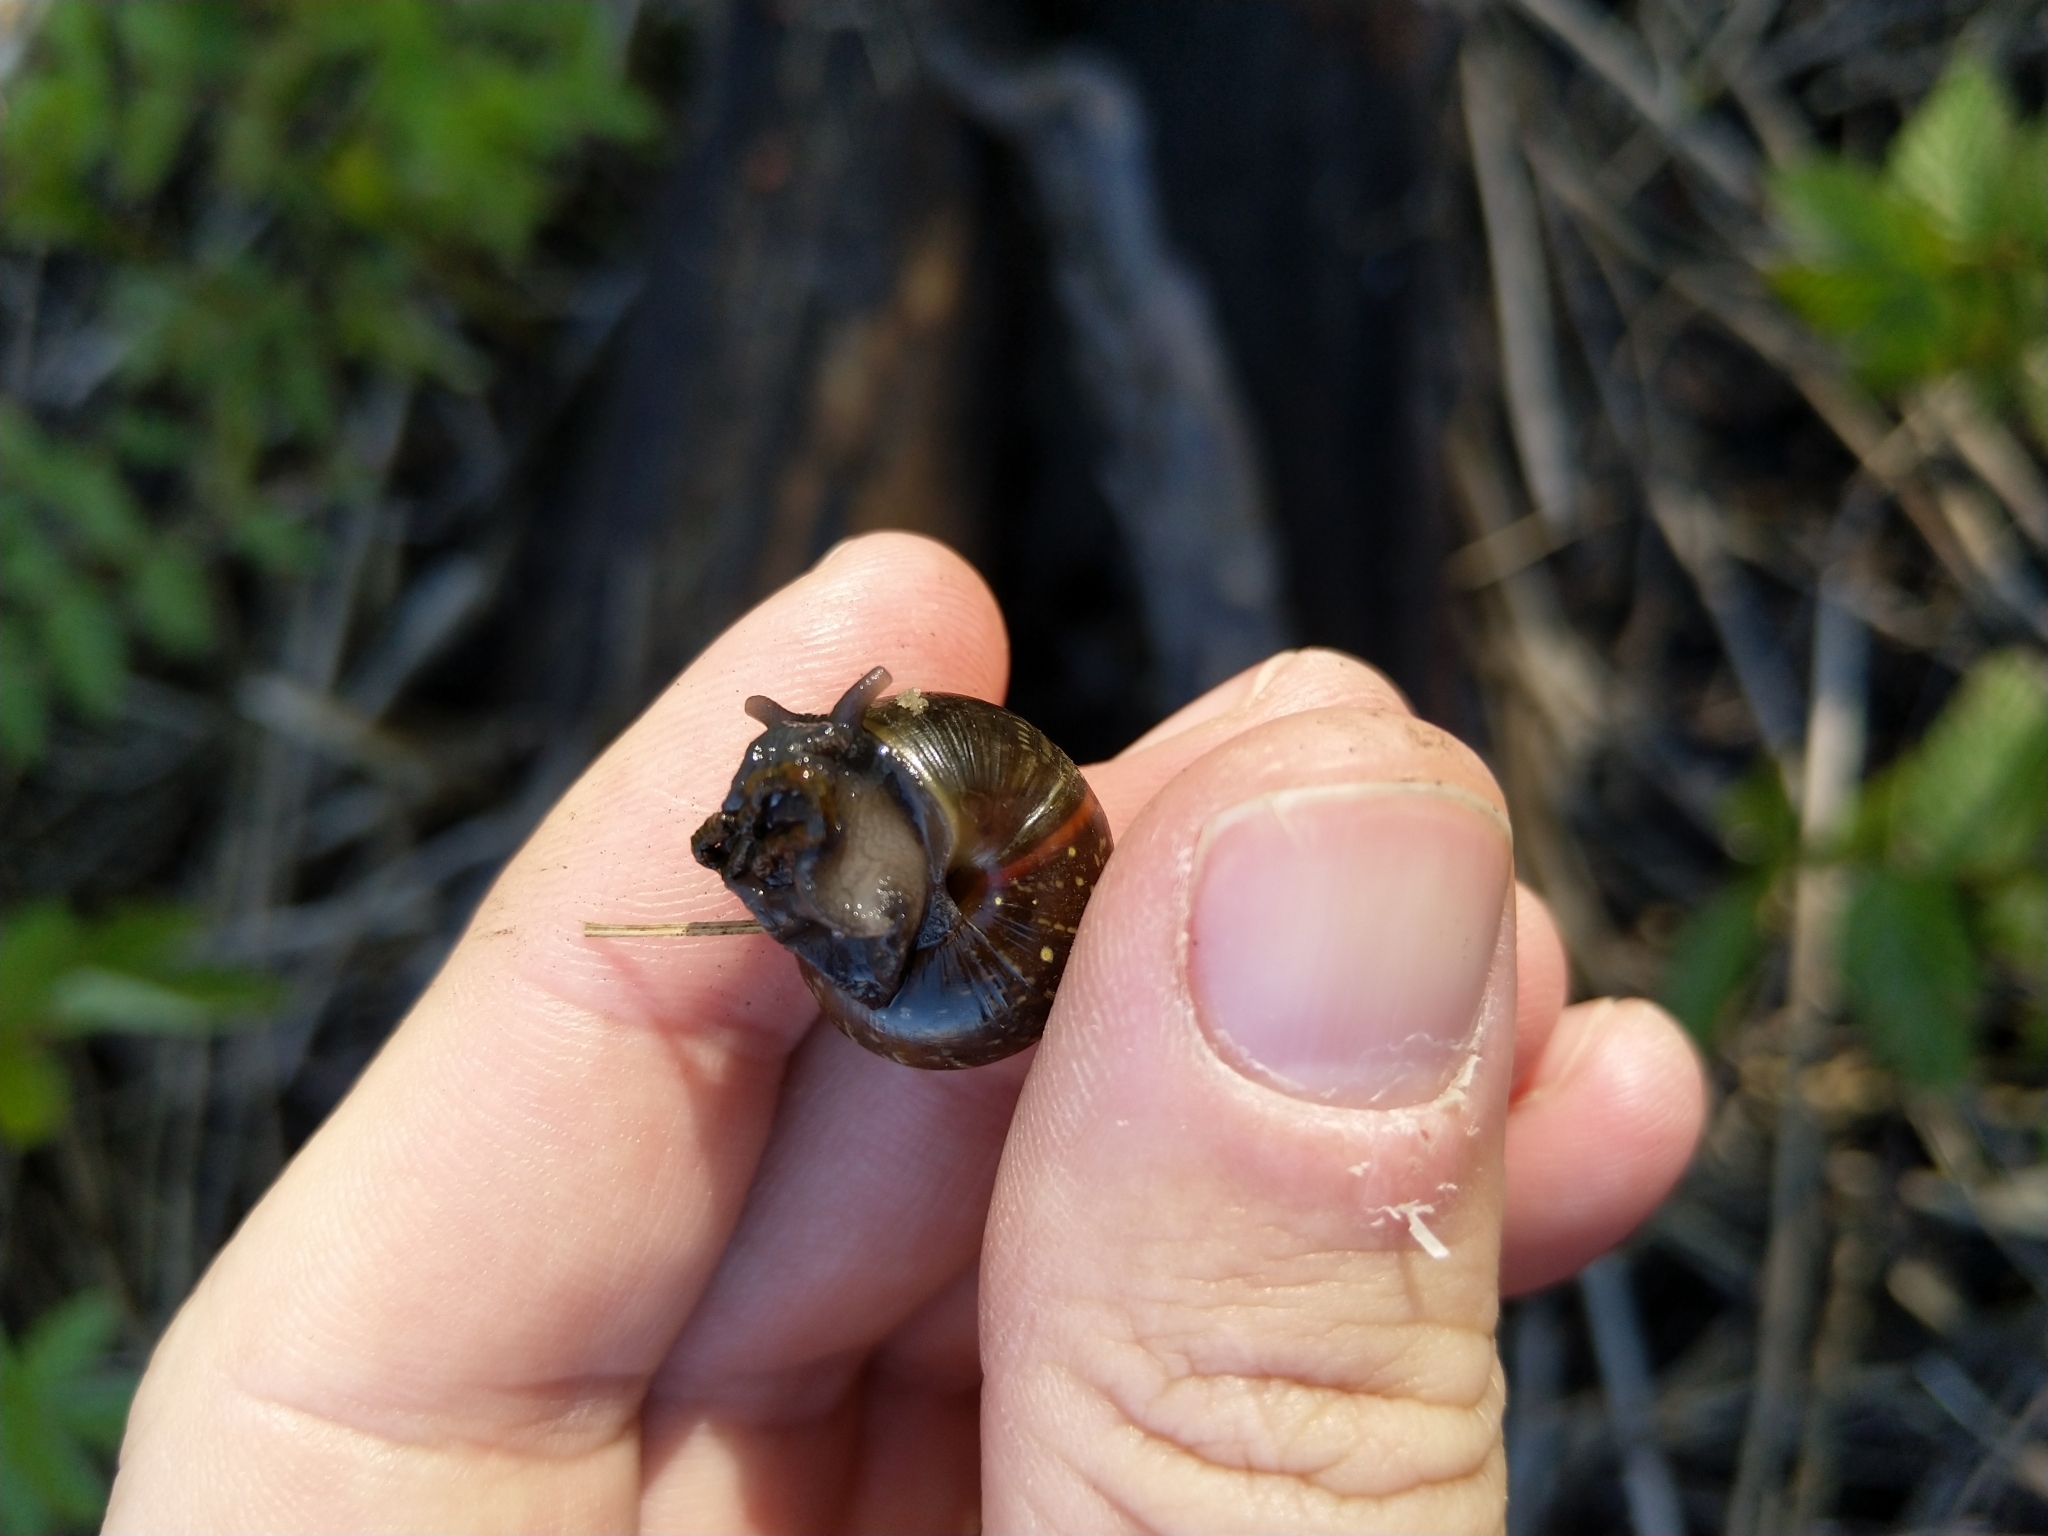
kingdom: Animalia
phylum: Mollusca
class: Gastropoda
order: Stylommatophora
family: Helicidae
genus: Arianta
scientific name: Arianta arbustorum
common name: Copse snail
